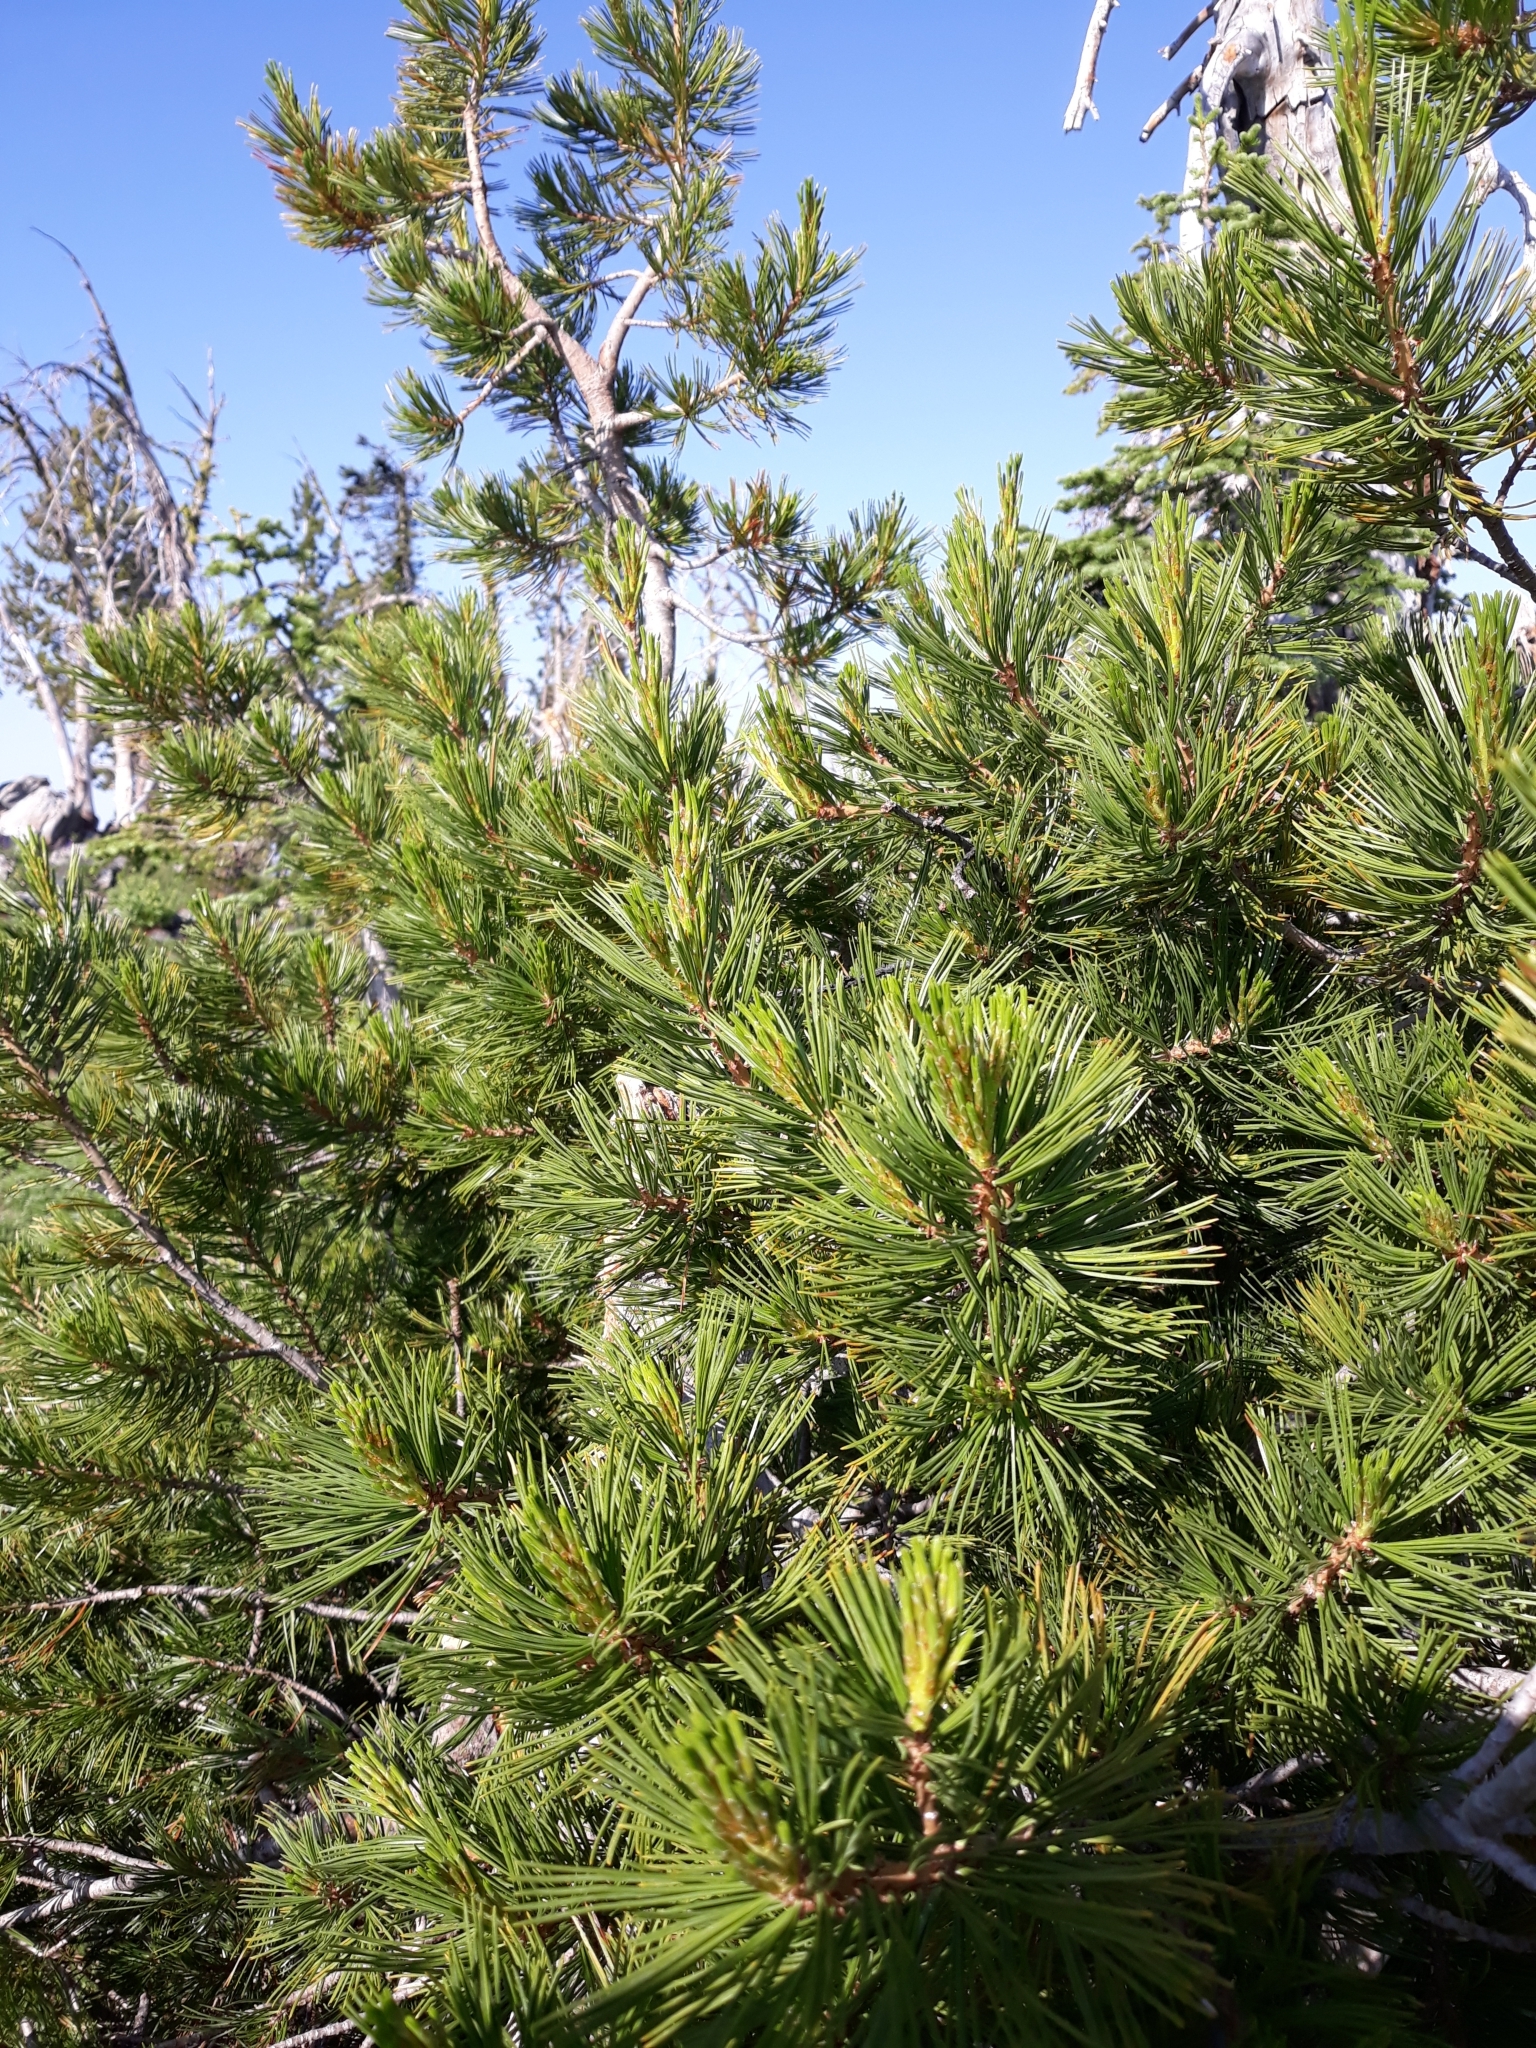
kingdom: Plantae
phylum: Tracheophyta
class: Pinopsida
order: Pinales
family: Pinaceae
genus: Pinus
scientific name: Pinus albicaulis
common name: Whitebark pine
